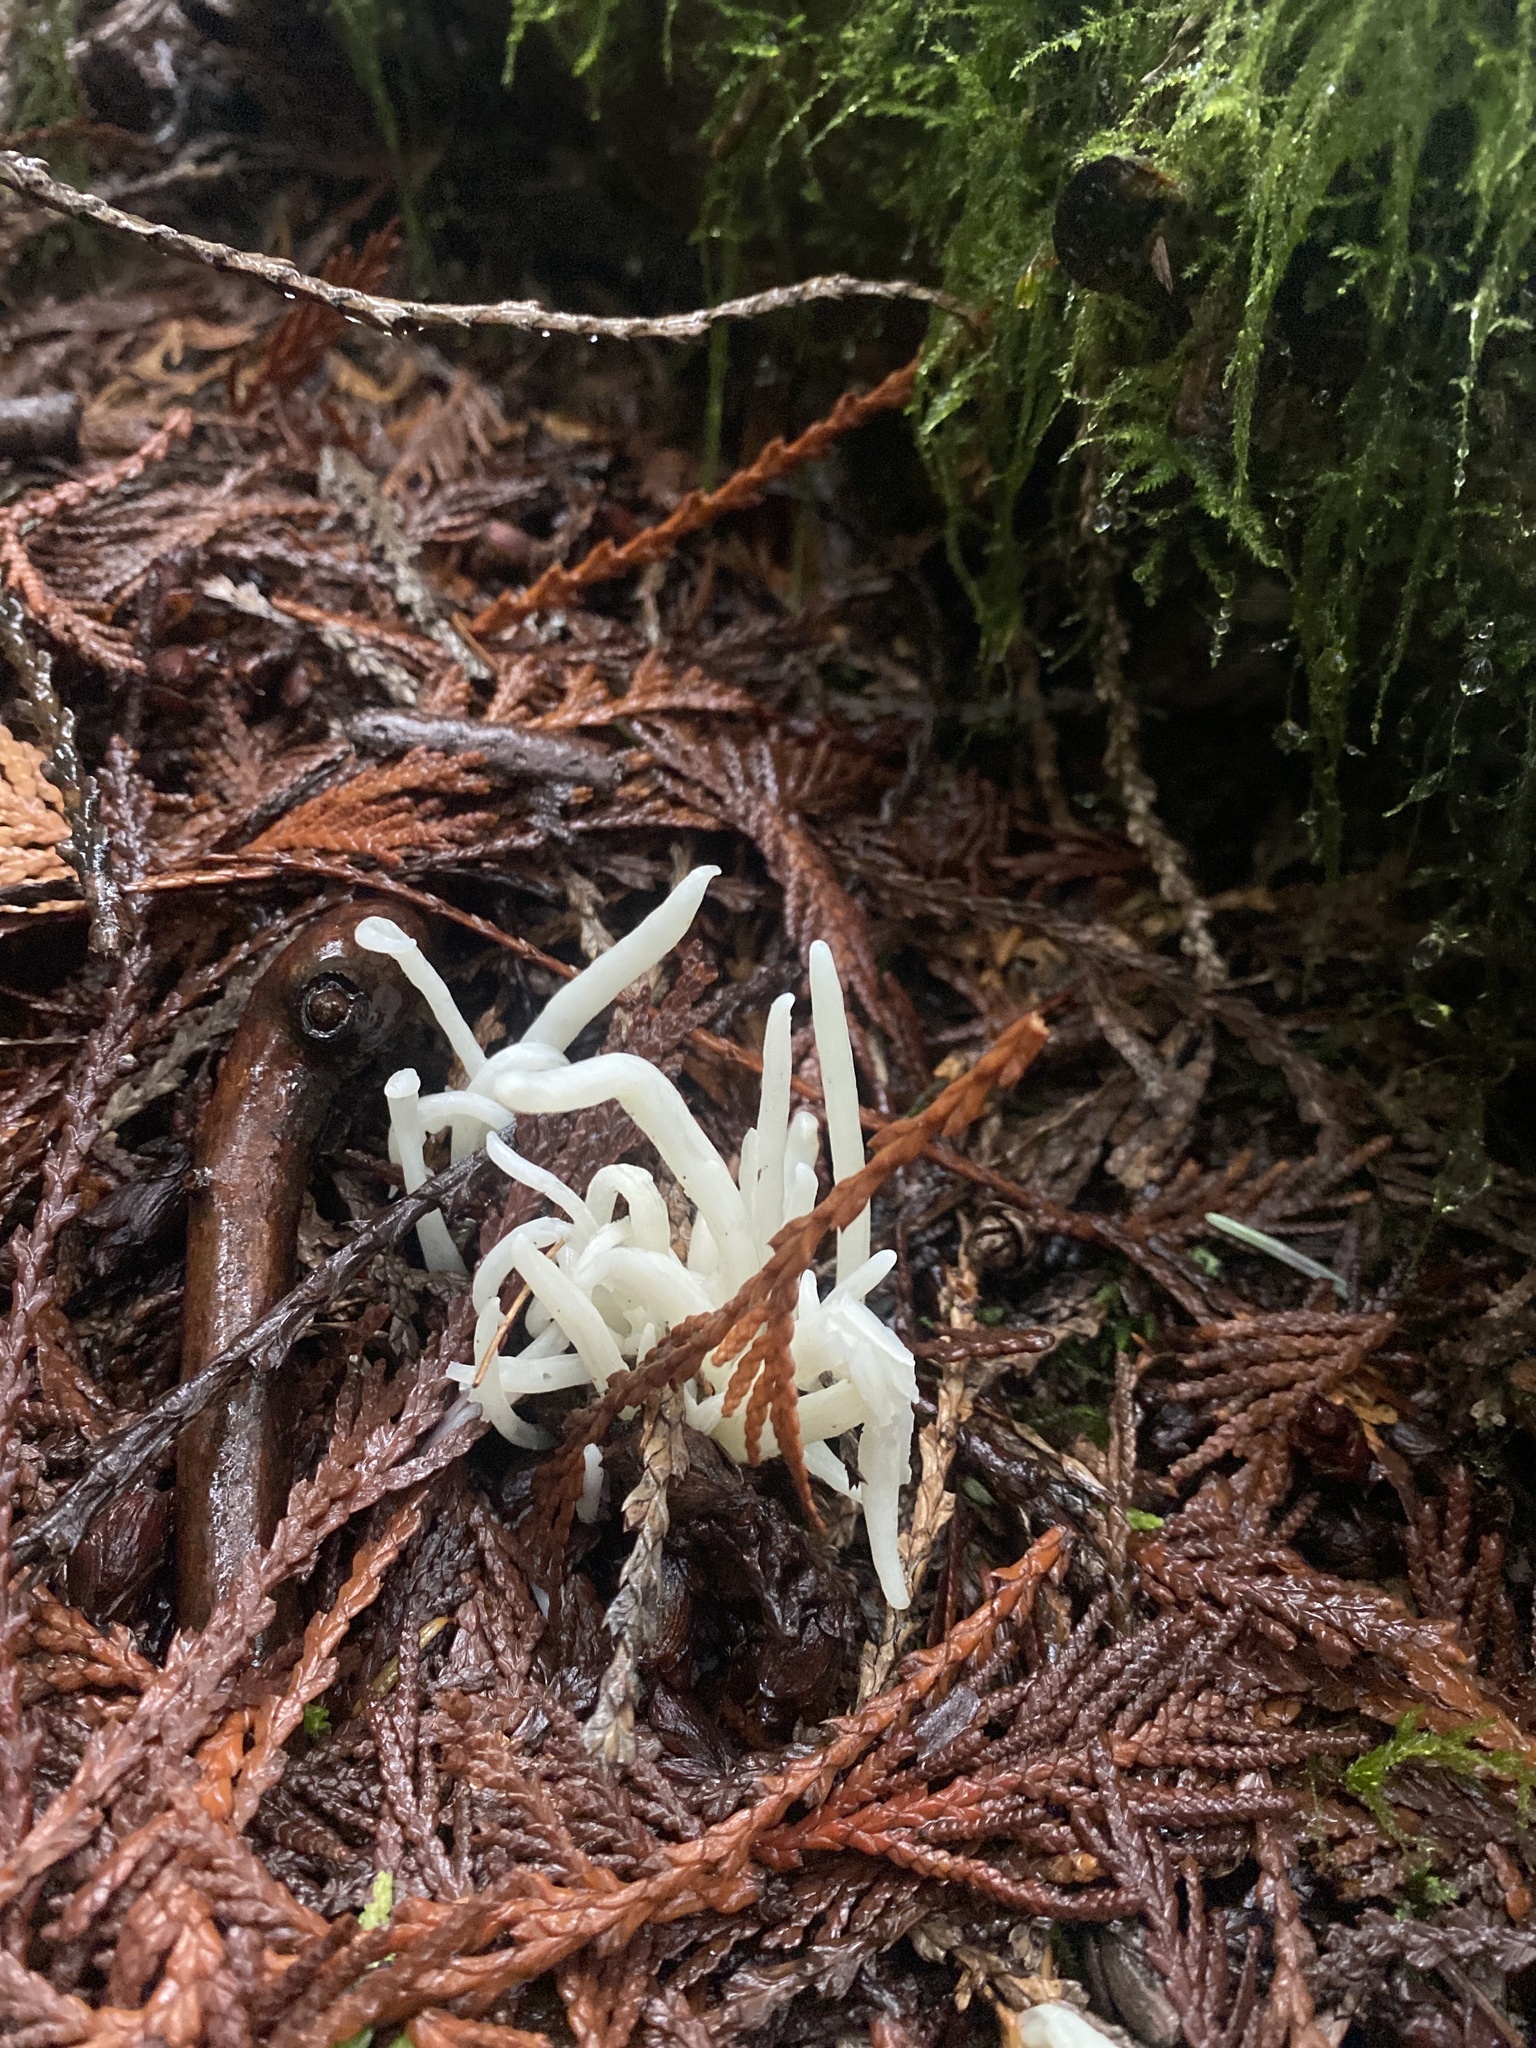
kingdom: Fungi
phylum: Basidiomycota
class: Agaricomycetes
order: Agaricales
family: Clavariaceae
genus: Clavaria
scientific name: Clavaria fragilis
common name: White spindles
